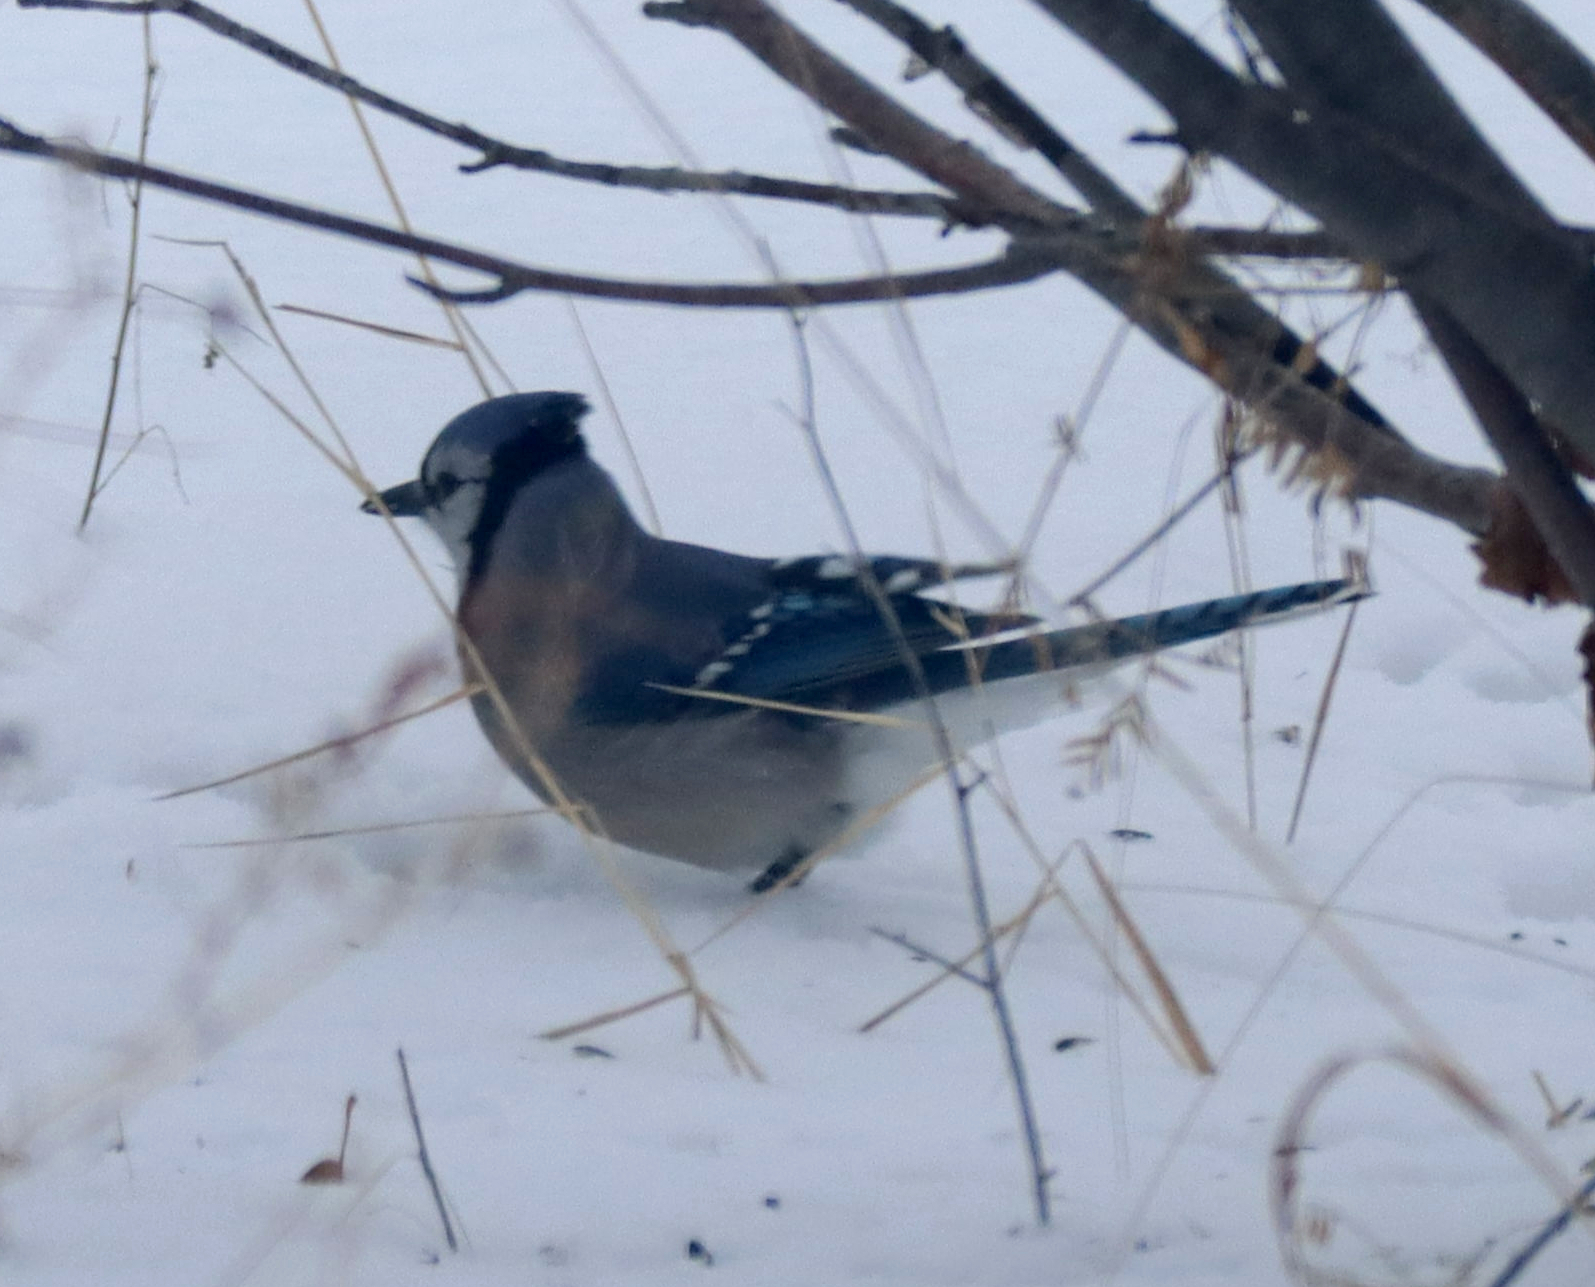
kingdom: Animalia
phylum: Chordata
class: Aves
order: Passeriformes
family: Corvidae
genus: Cyanocitta
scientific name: Cyanocitta cristata
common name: Blue jay
